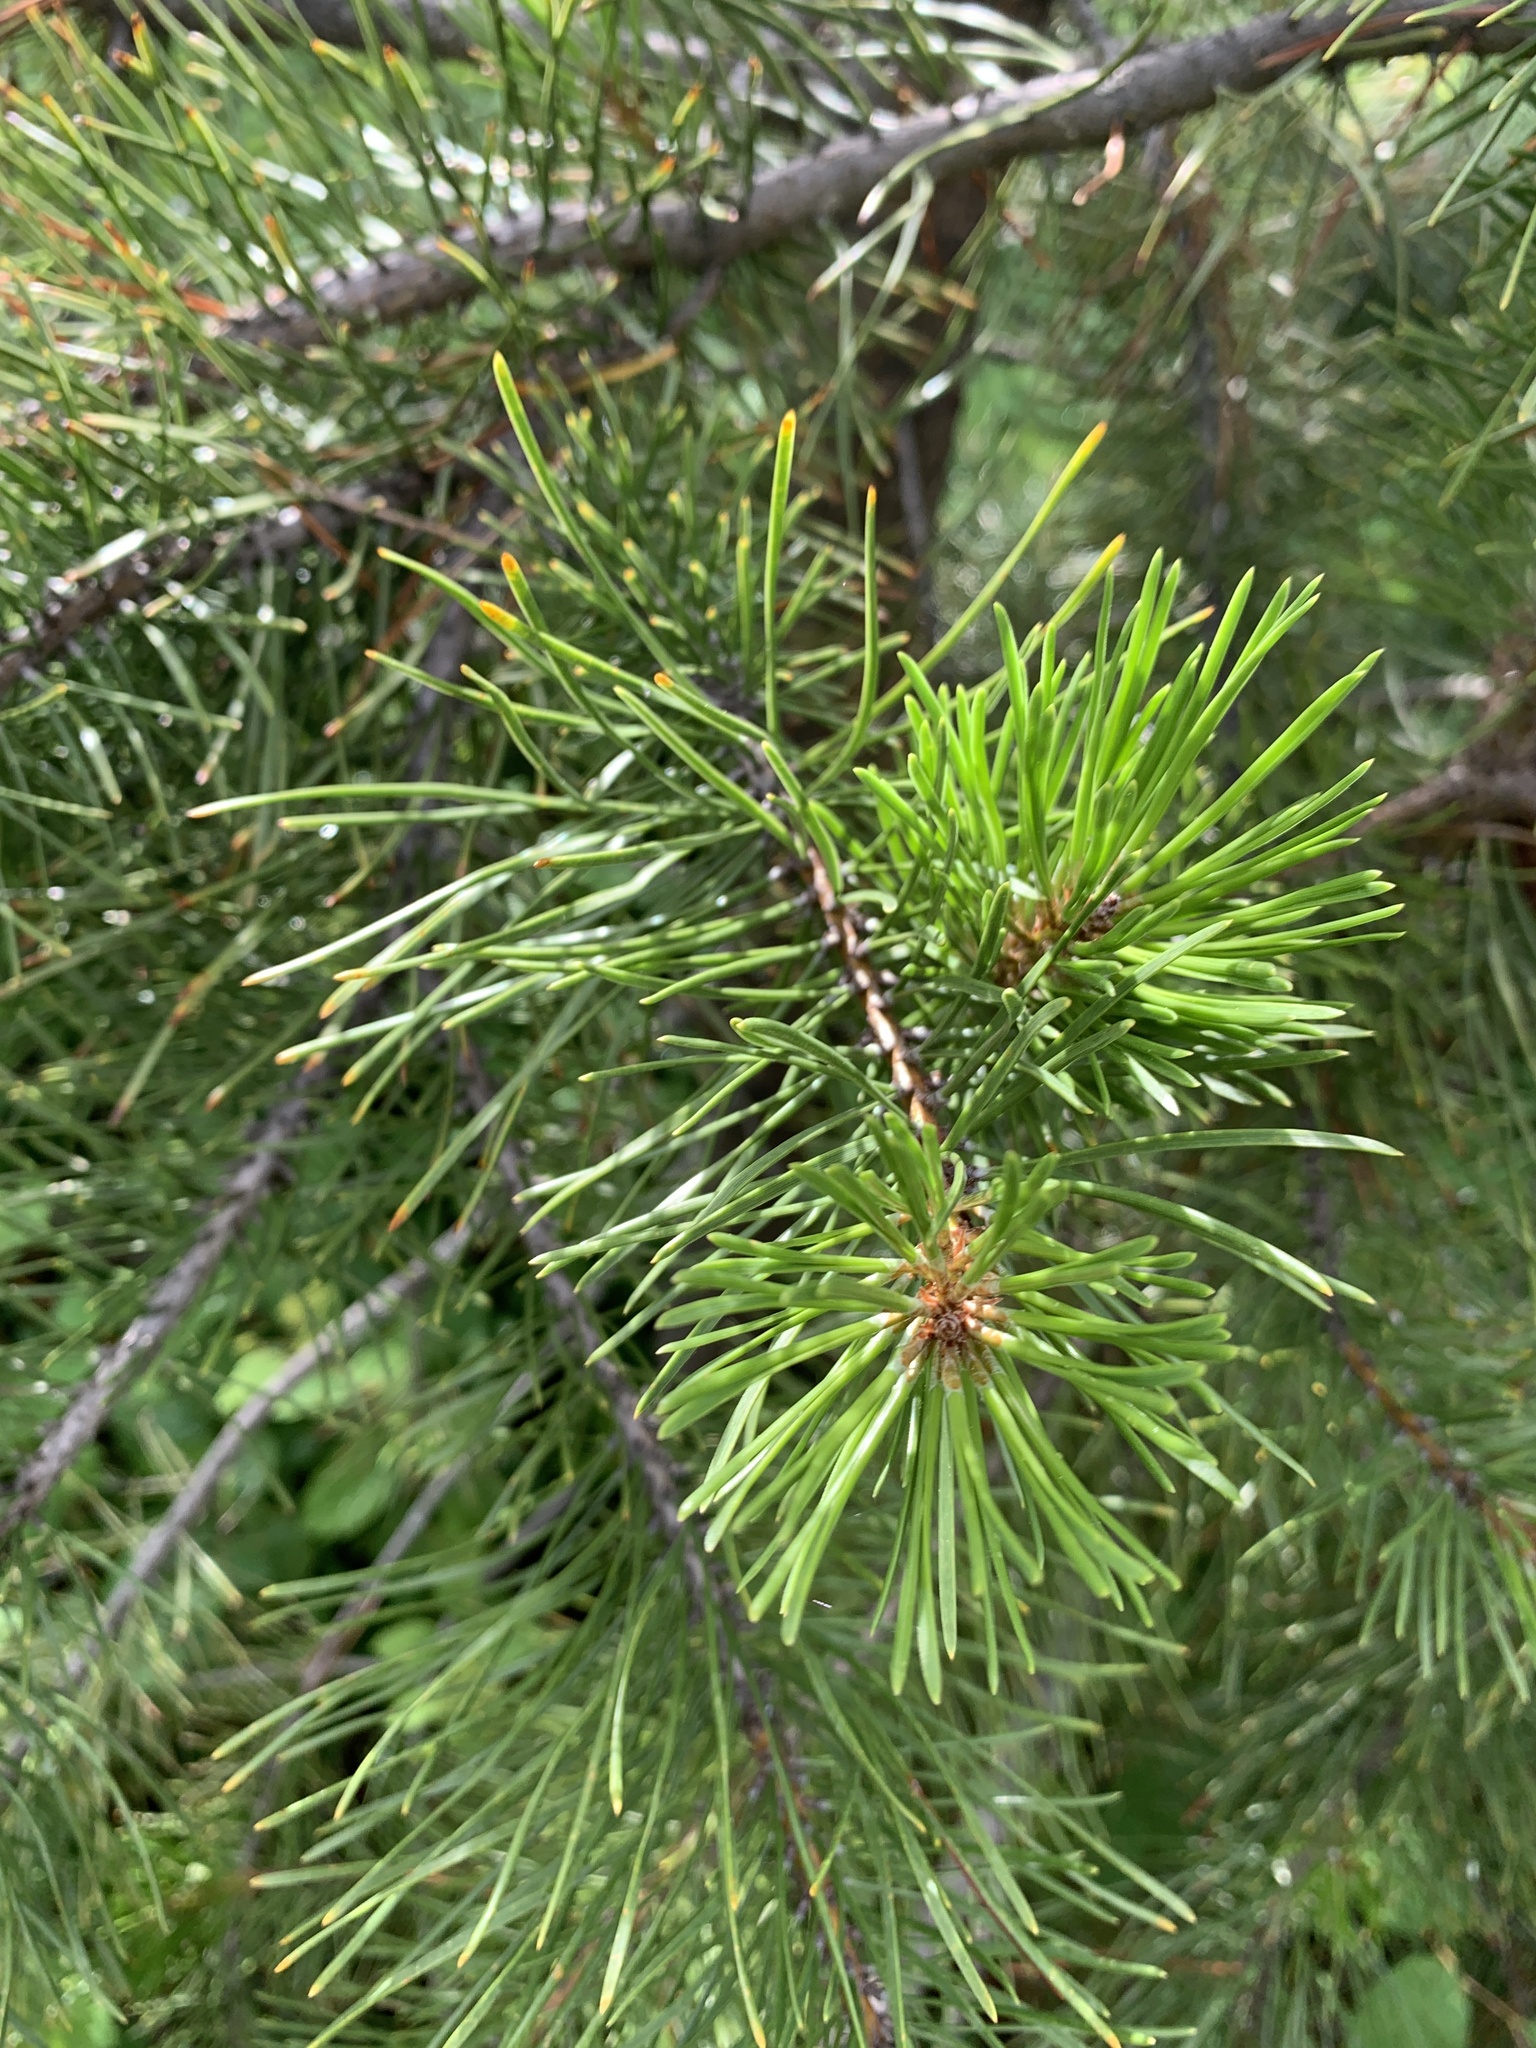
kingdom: Plantae
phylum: Tracheophyta
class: Pinopsida
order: Pinales
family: Pinaceae
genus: Pinus
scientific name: Pinus contorta
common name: Lodgepole pine
